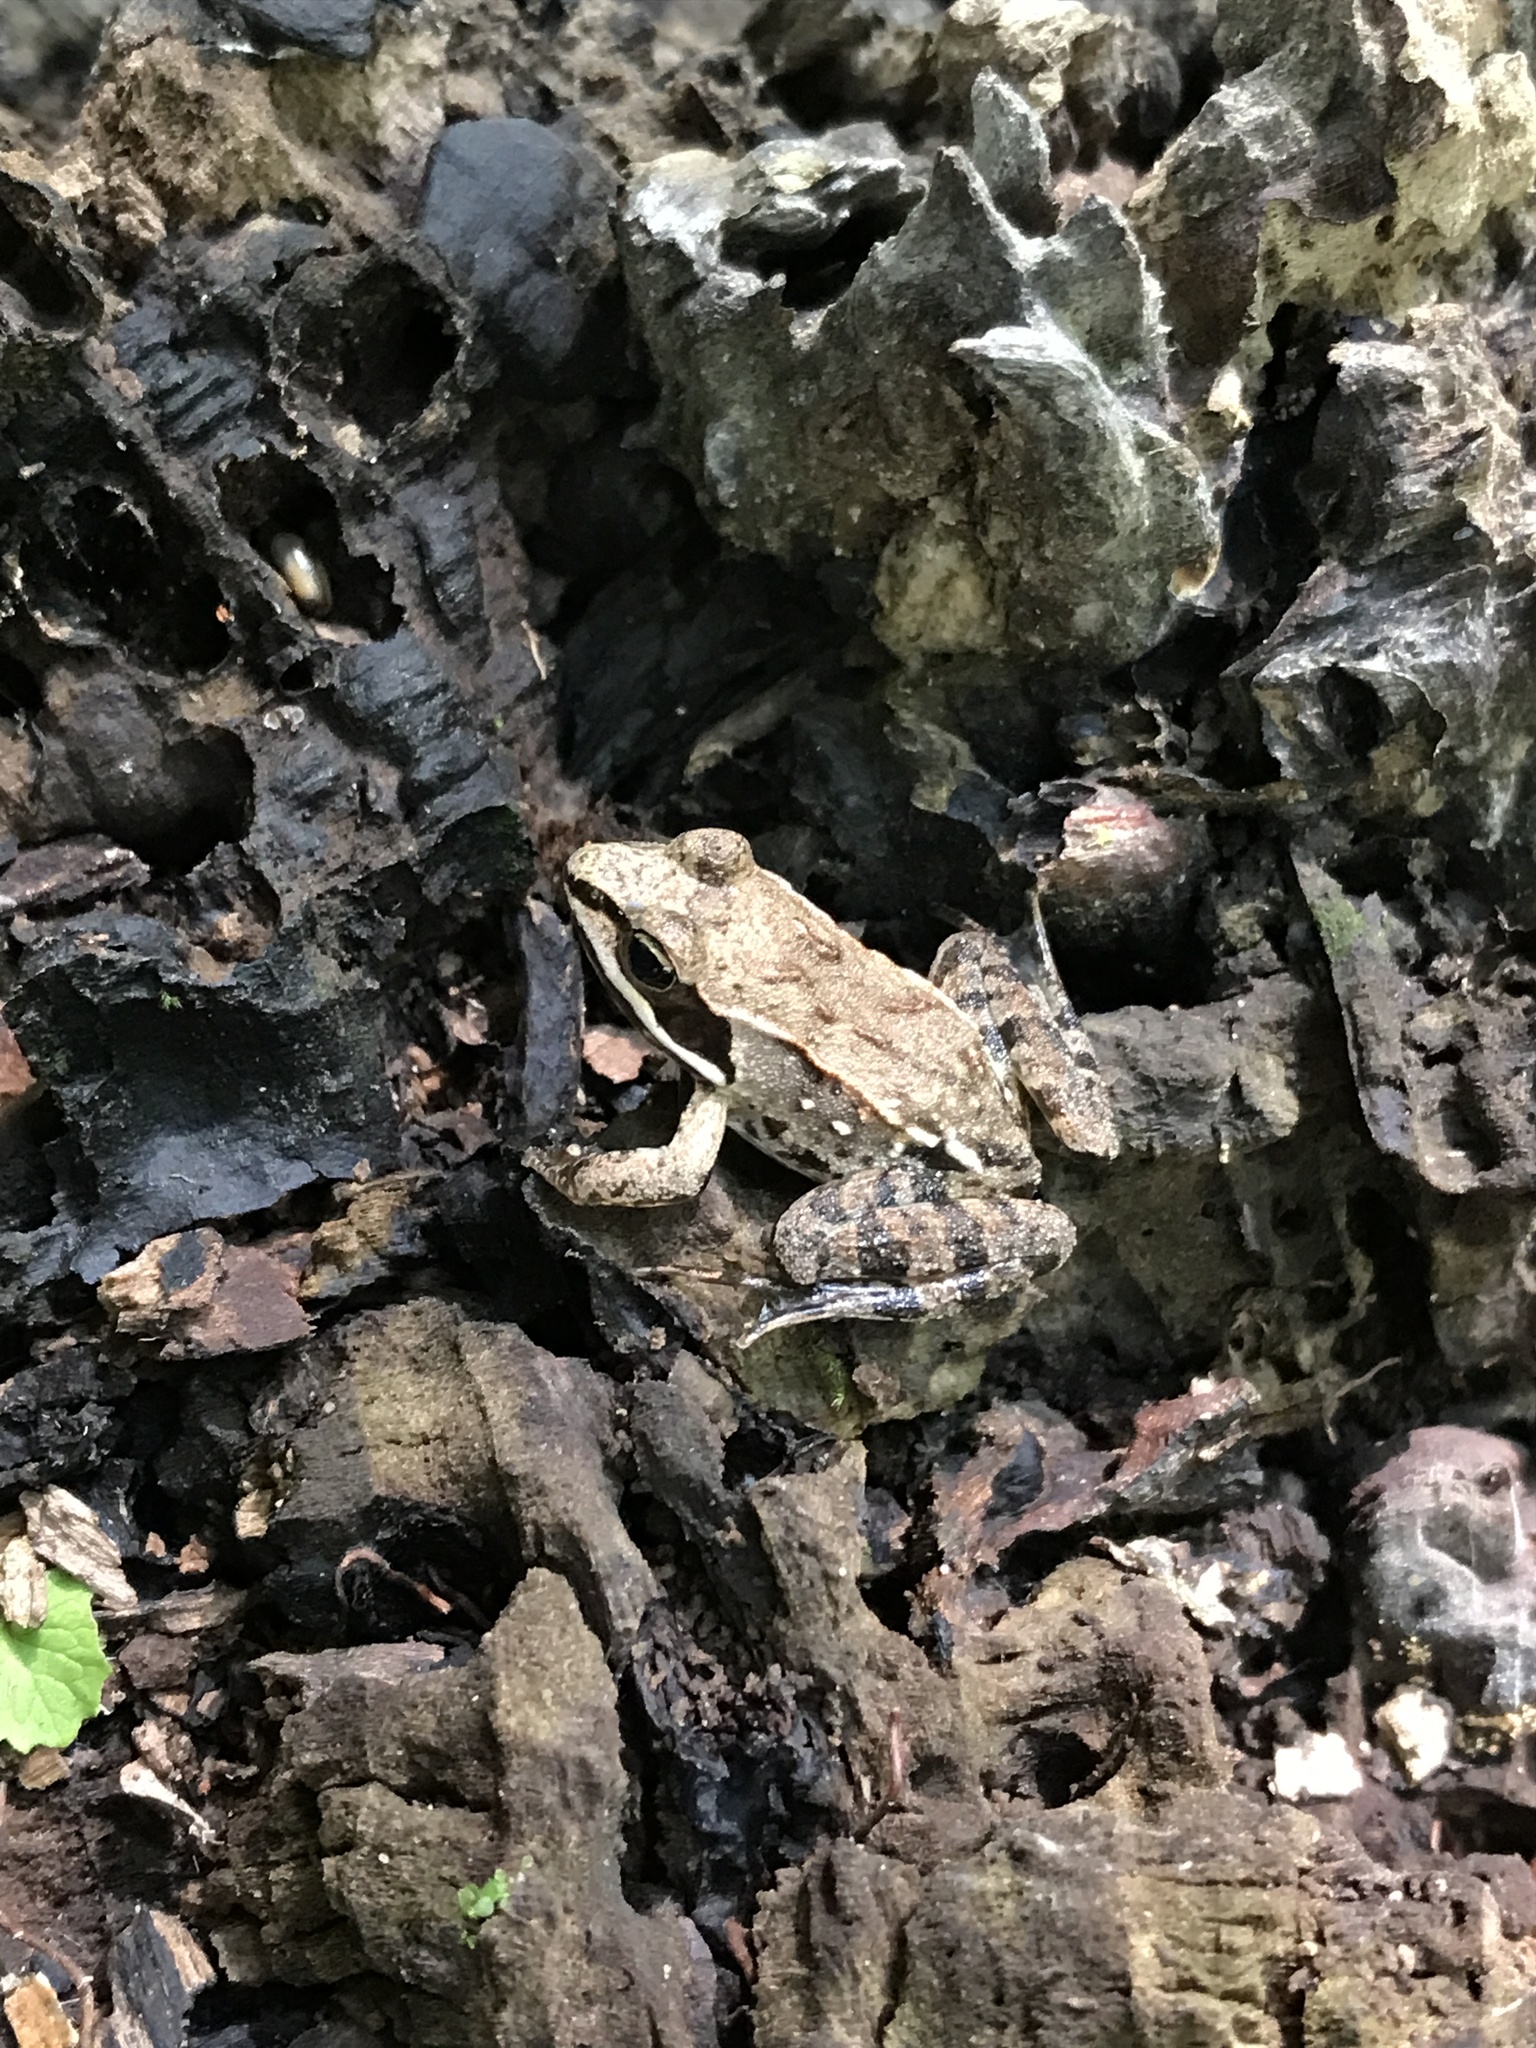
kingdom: Animalia
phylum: Chordata
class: Amphibia
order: Anura
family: Ranidae
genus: Lithobates
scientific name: Lithobates sylvaticus
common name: Wood frog
